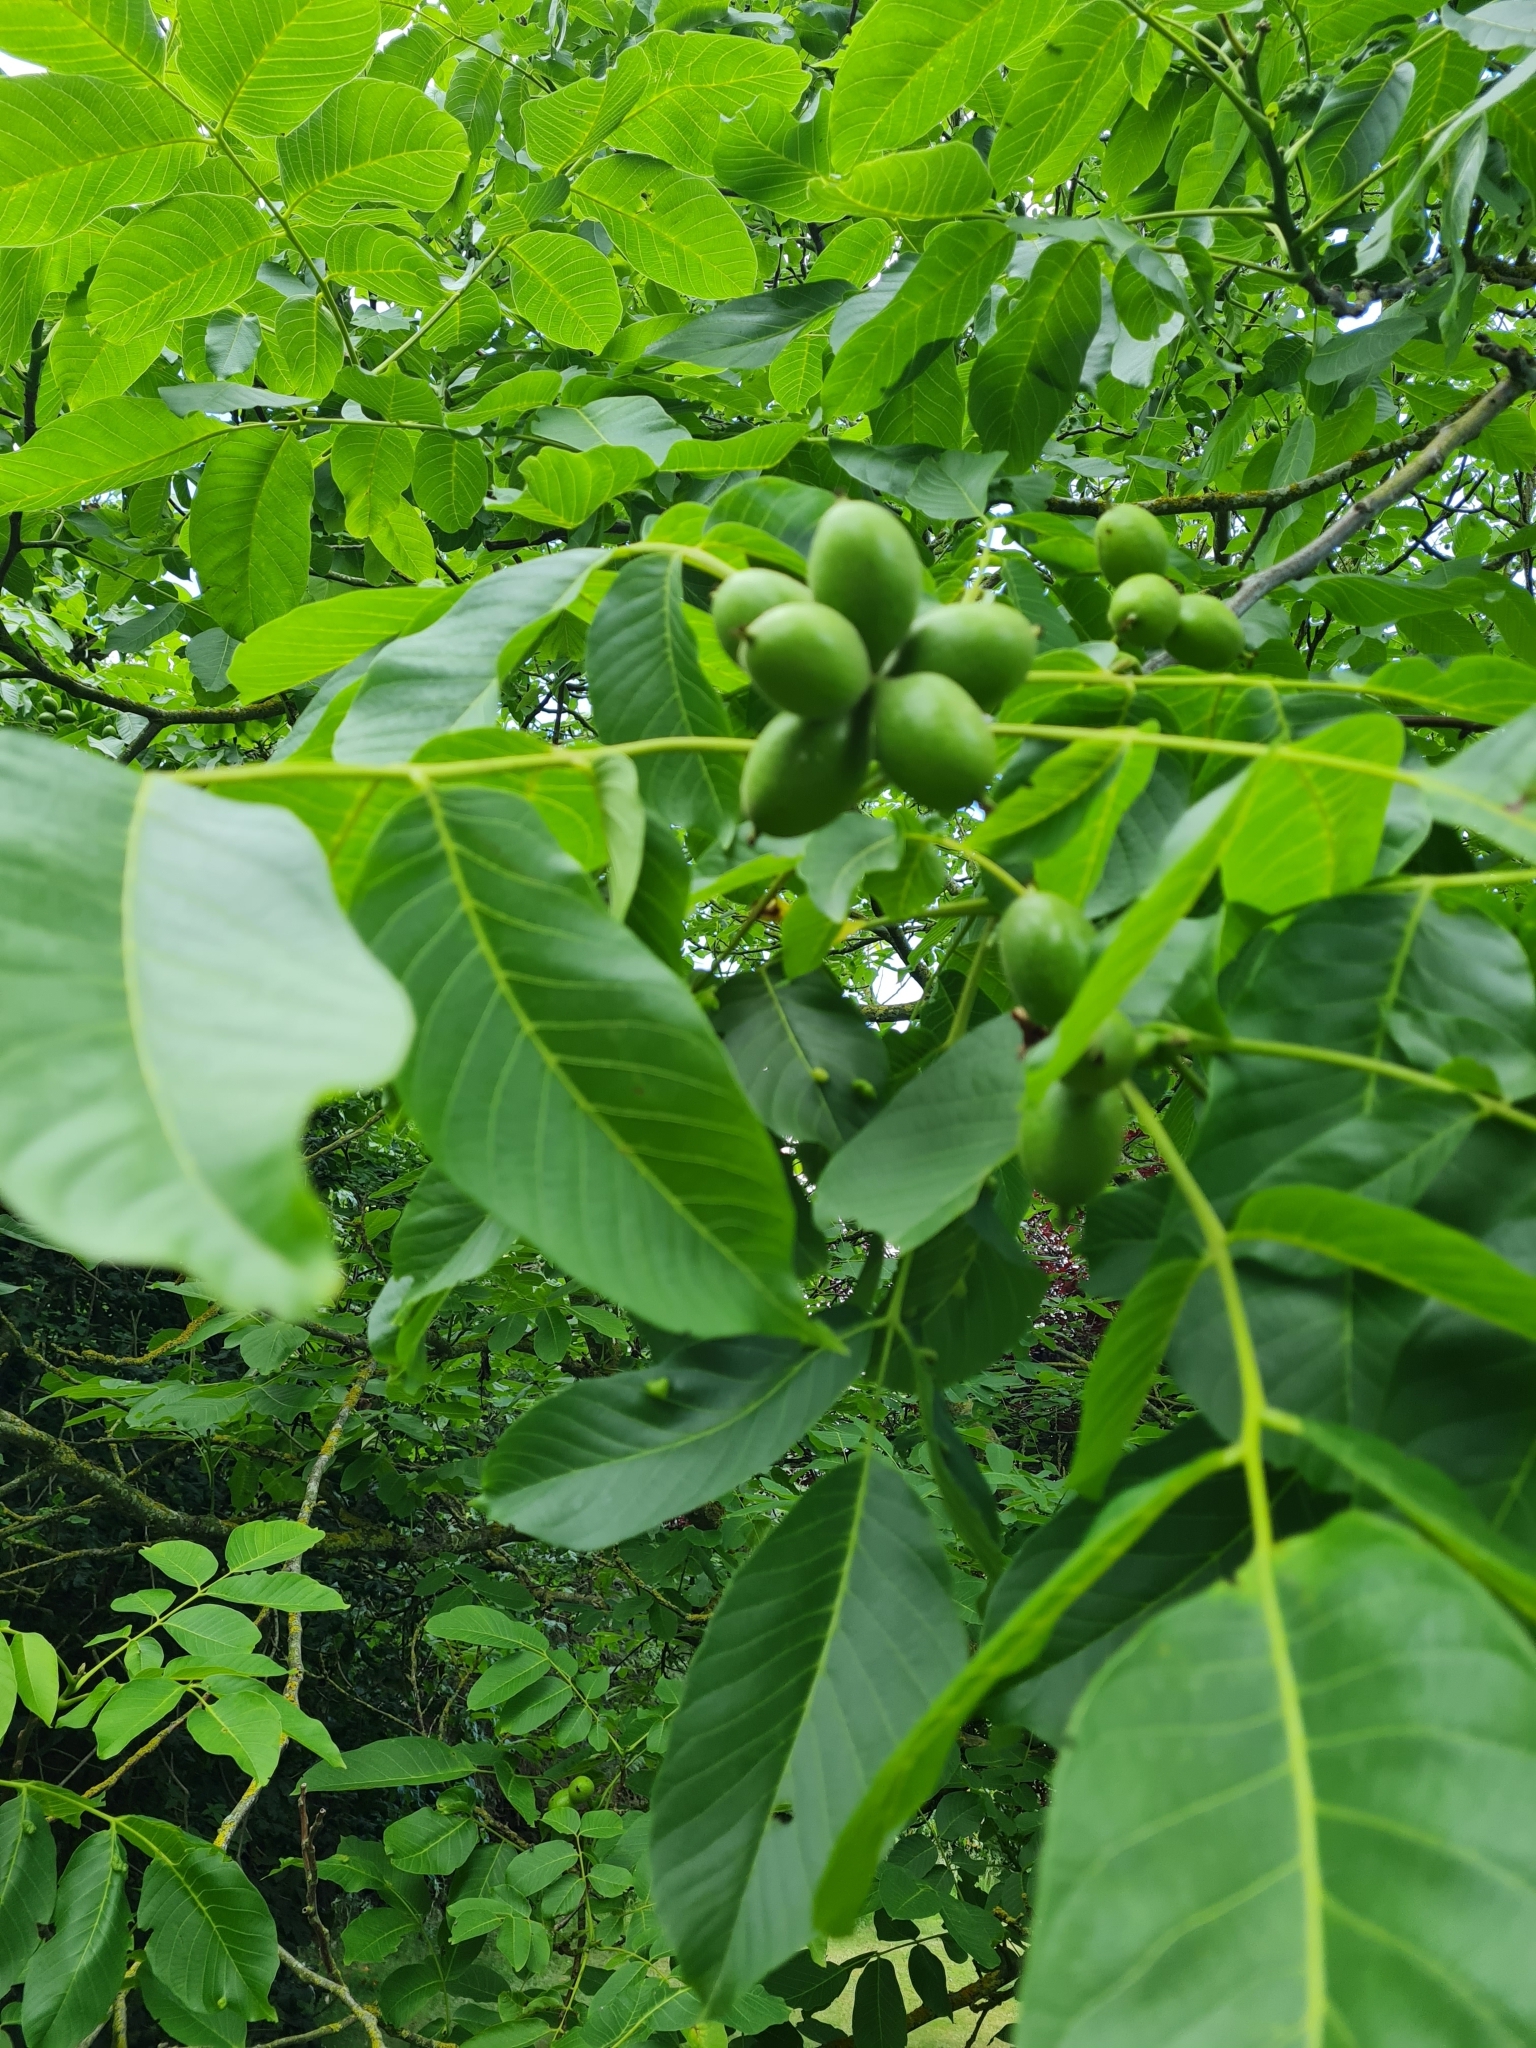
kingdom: Plantae
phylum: Tracheophyta
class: Magnoliopsida
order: Fagales
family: Juglandaceae
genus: Juglans
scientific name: Juglans regia
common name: Walnut
